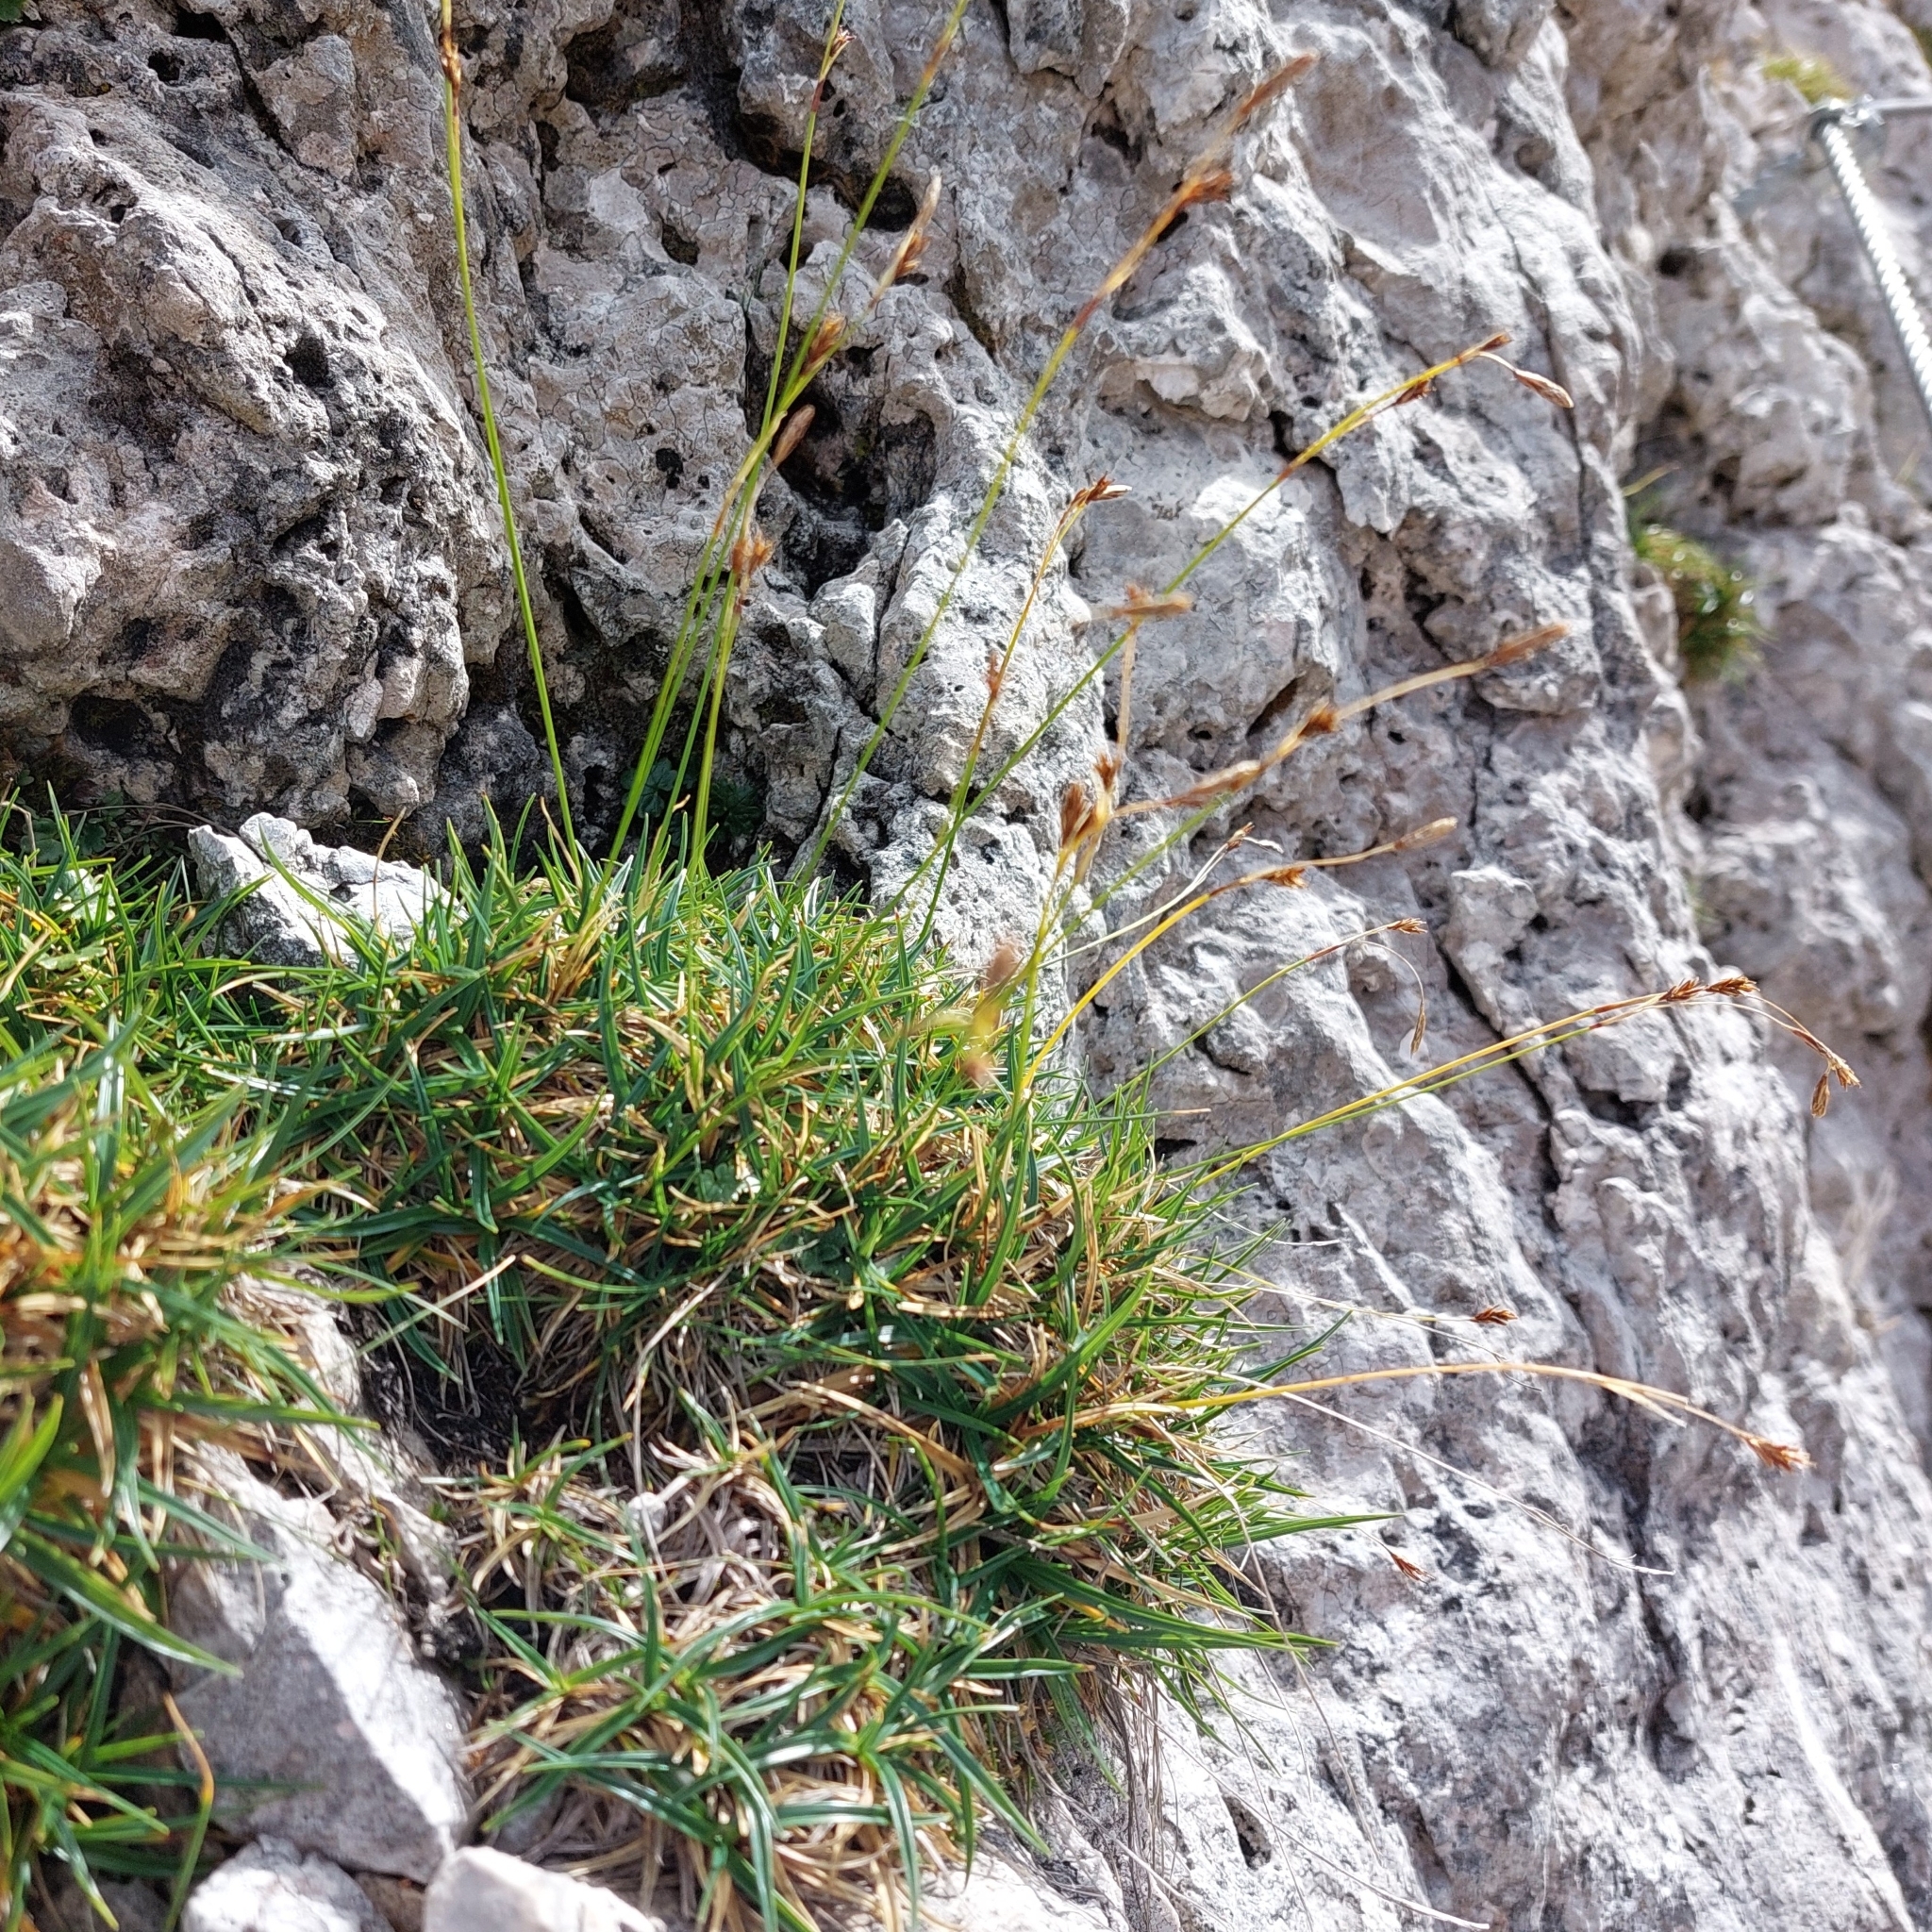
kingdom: Plantae
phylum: Tracheophyta
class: Liliopsida
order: Poales
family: Cyperaceae
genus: Carex
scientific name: Carex firma
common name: Dwarf pillow sedge
